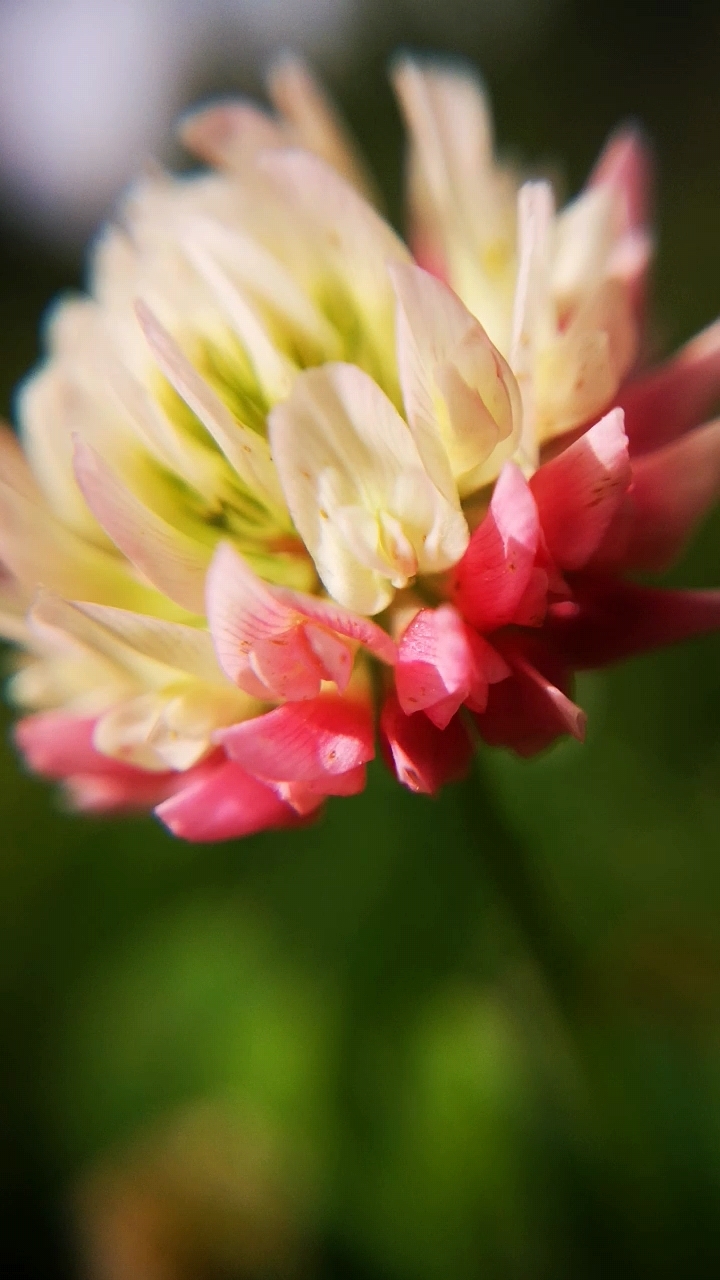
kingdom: Plantae
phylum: Tracheophyta
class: Magnoliopsida
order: Fabales
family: Fabaceae
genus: Trifolium
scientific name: Trifolium hybridum
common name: Alsike clover
